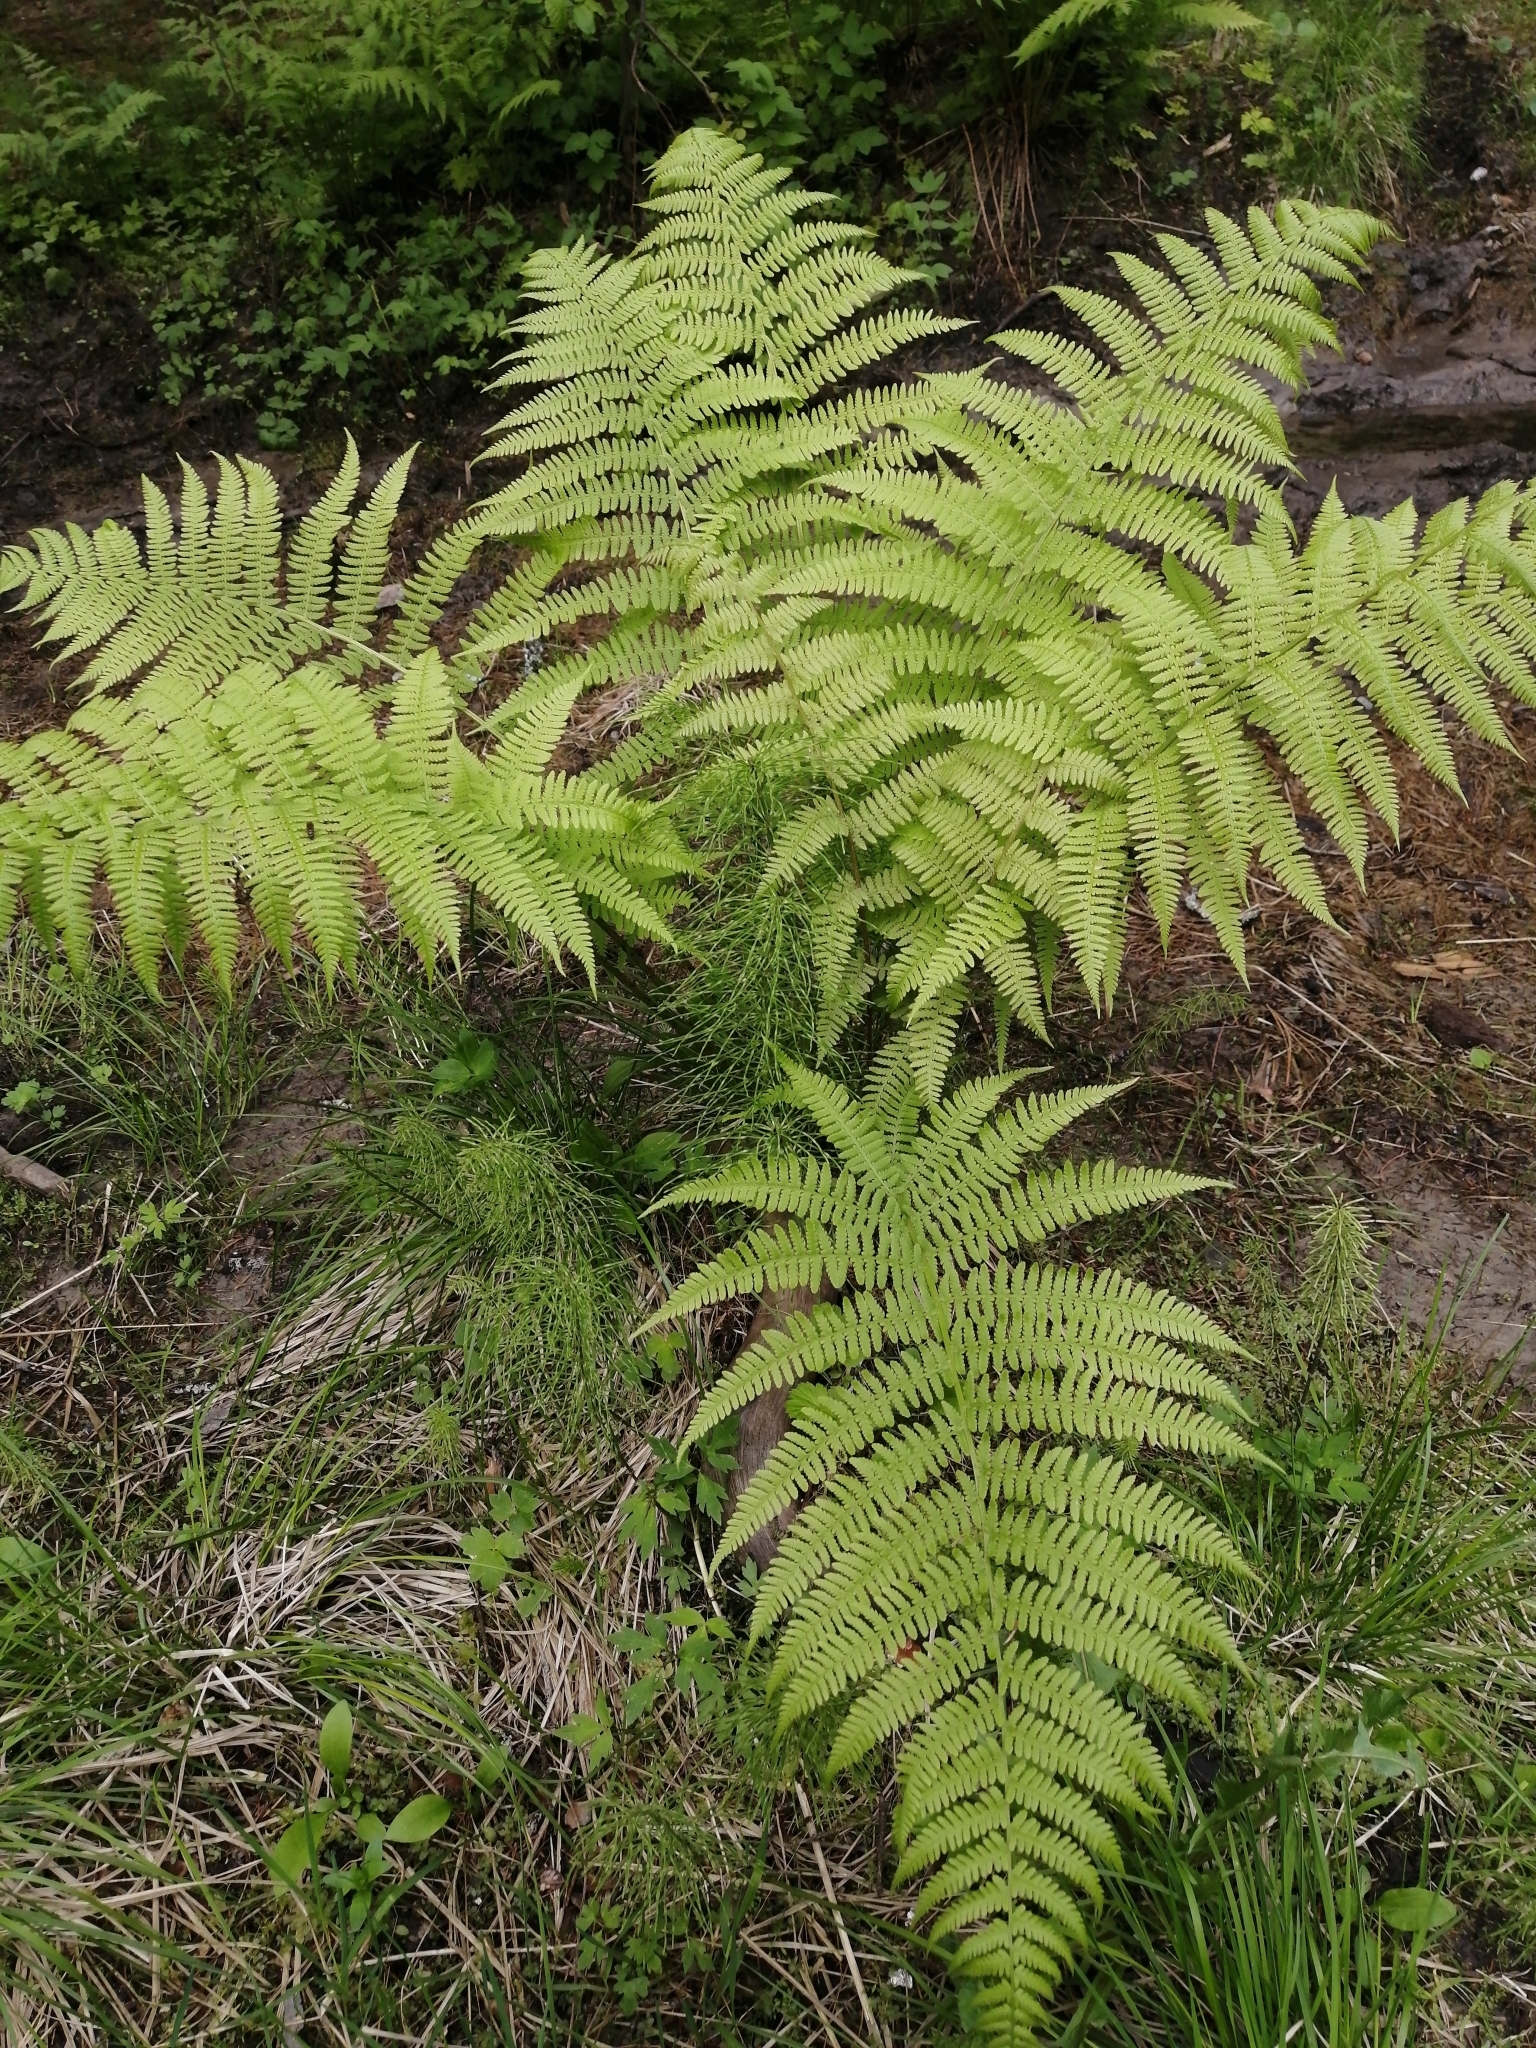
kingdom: Plantae
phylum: Tracheophyta
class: Polypodiopsida
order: Polypodiales
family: Athyriaceae
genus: Athyrium
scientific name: Athyrium filix-femina
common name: Lady fern
